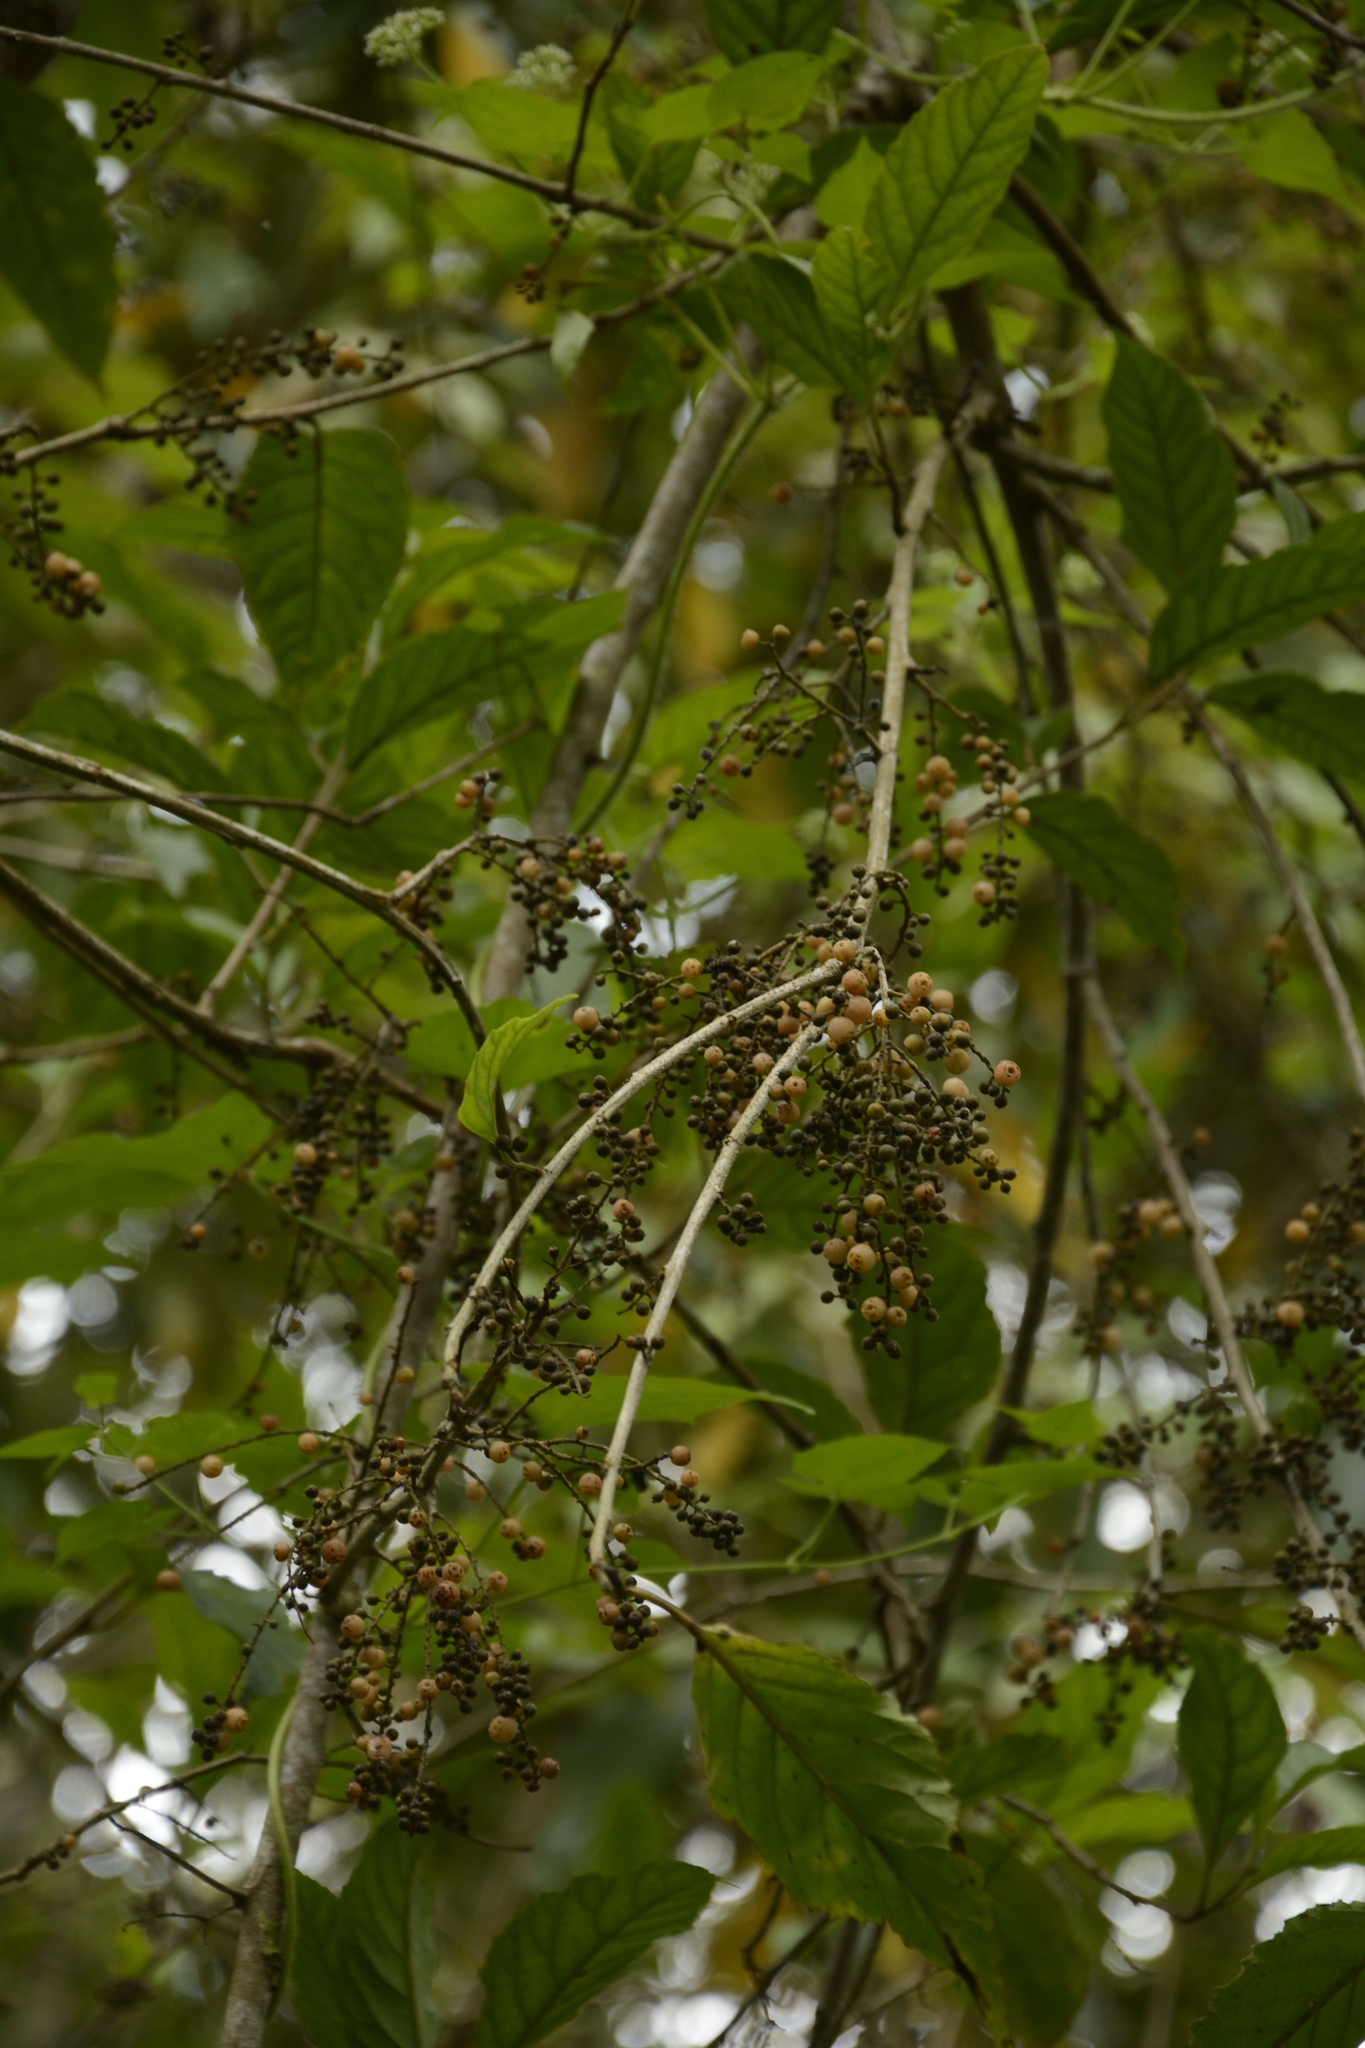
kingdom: Plantae
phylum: Tracheophyta
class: Magnoliopsida
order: Ericales
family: Primulaceae
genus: Maesa
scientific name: Maesa indica
